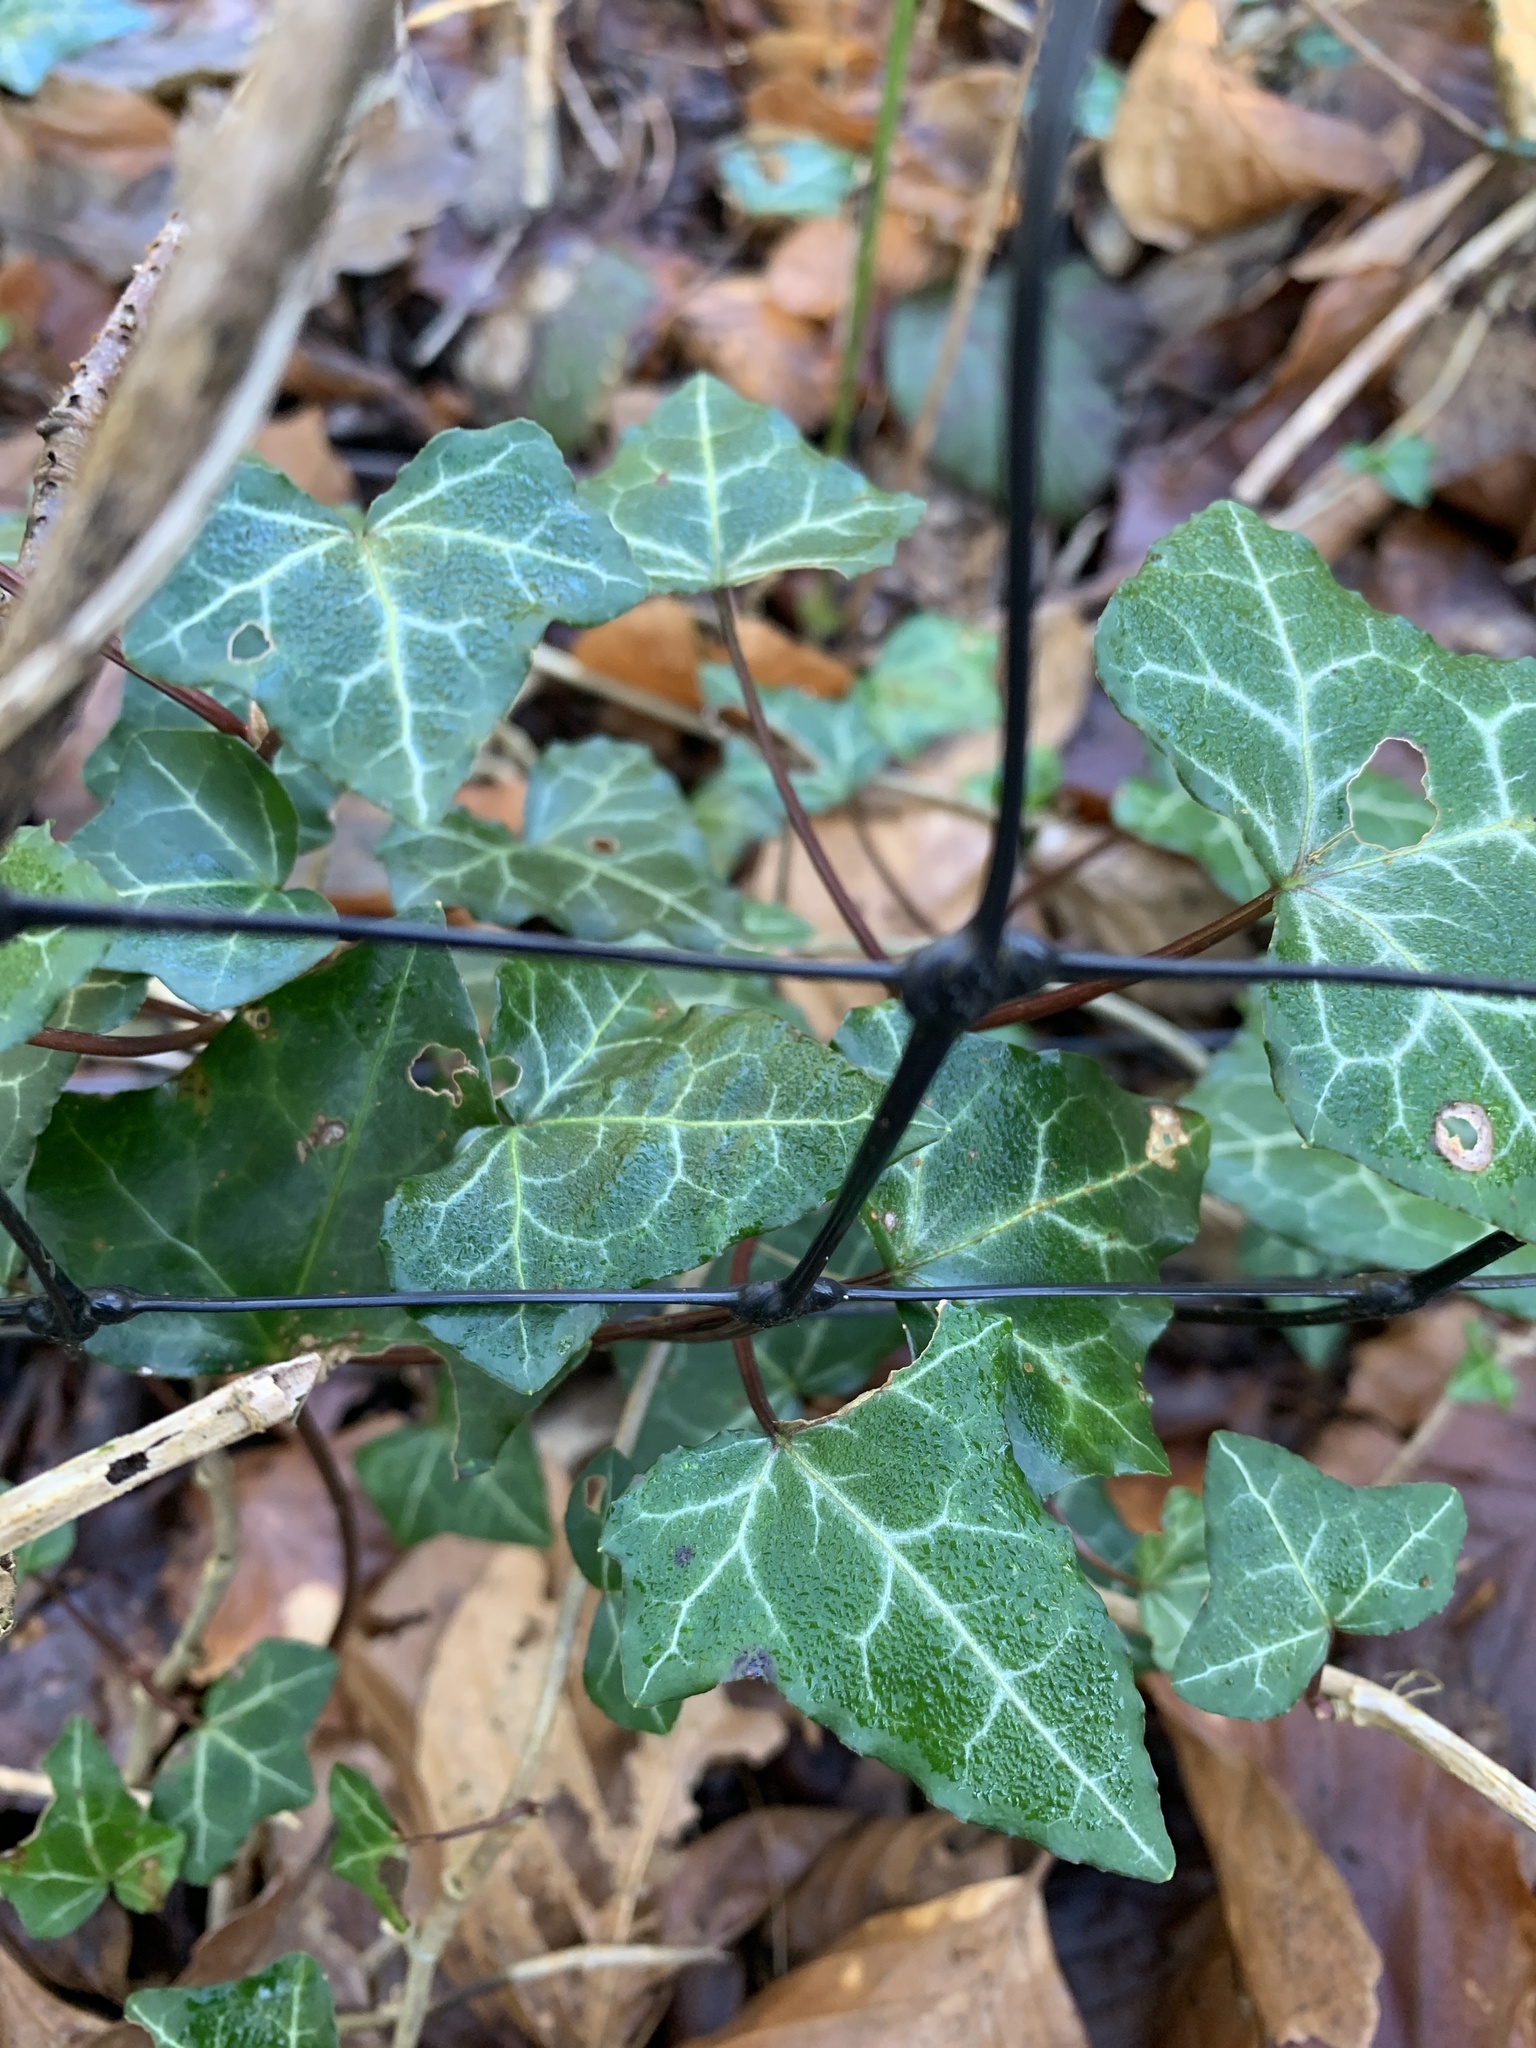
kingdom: Plantae
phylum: Tracheophyta
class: Magnoliopsida
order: Apiales
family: Araliaceae
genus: Hedera
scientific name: Hedera helix
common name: Ivy
